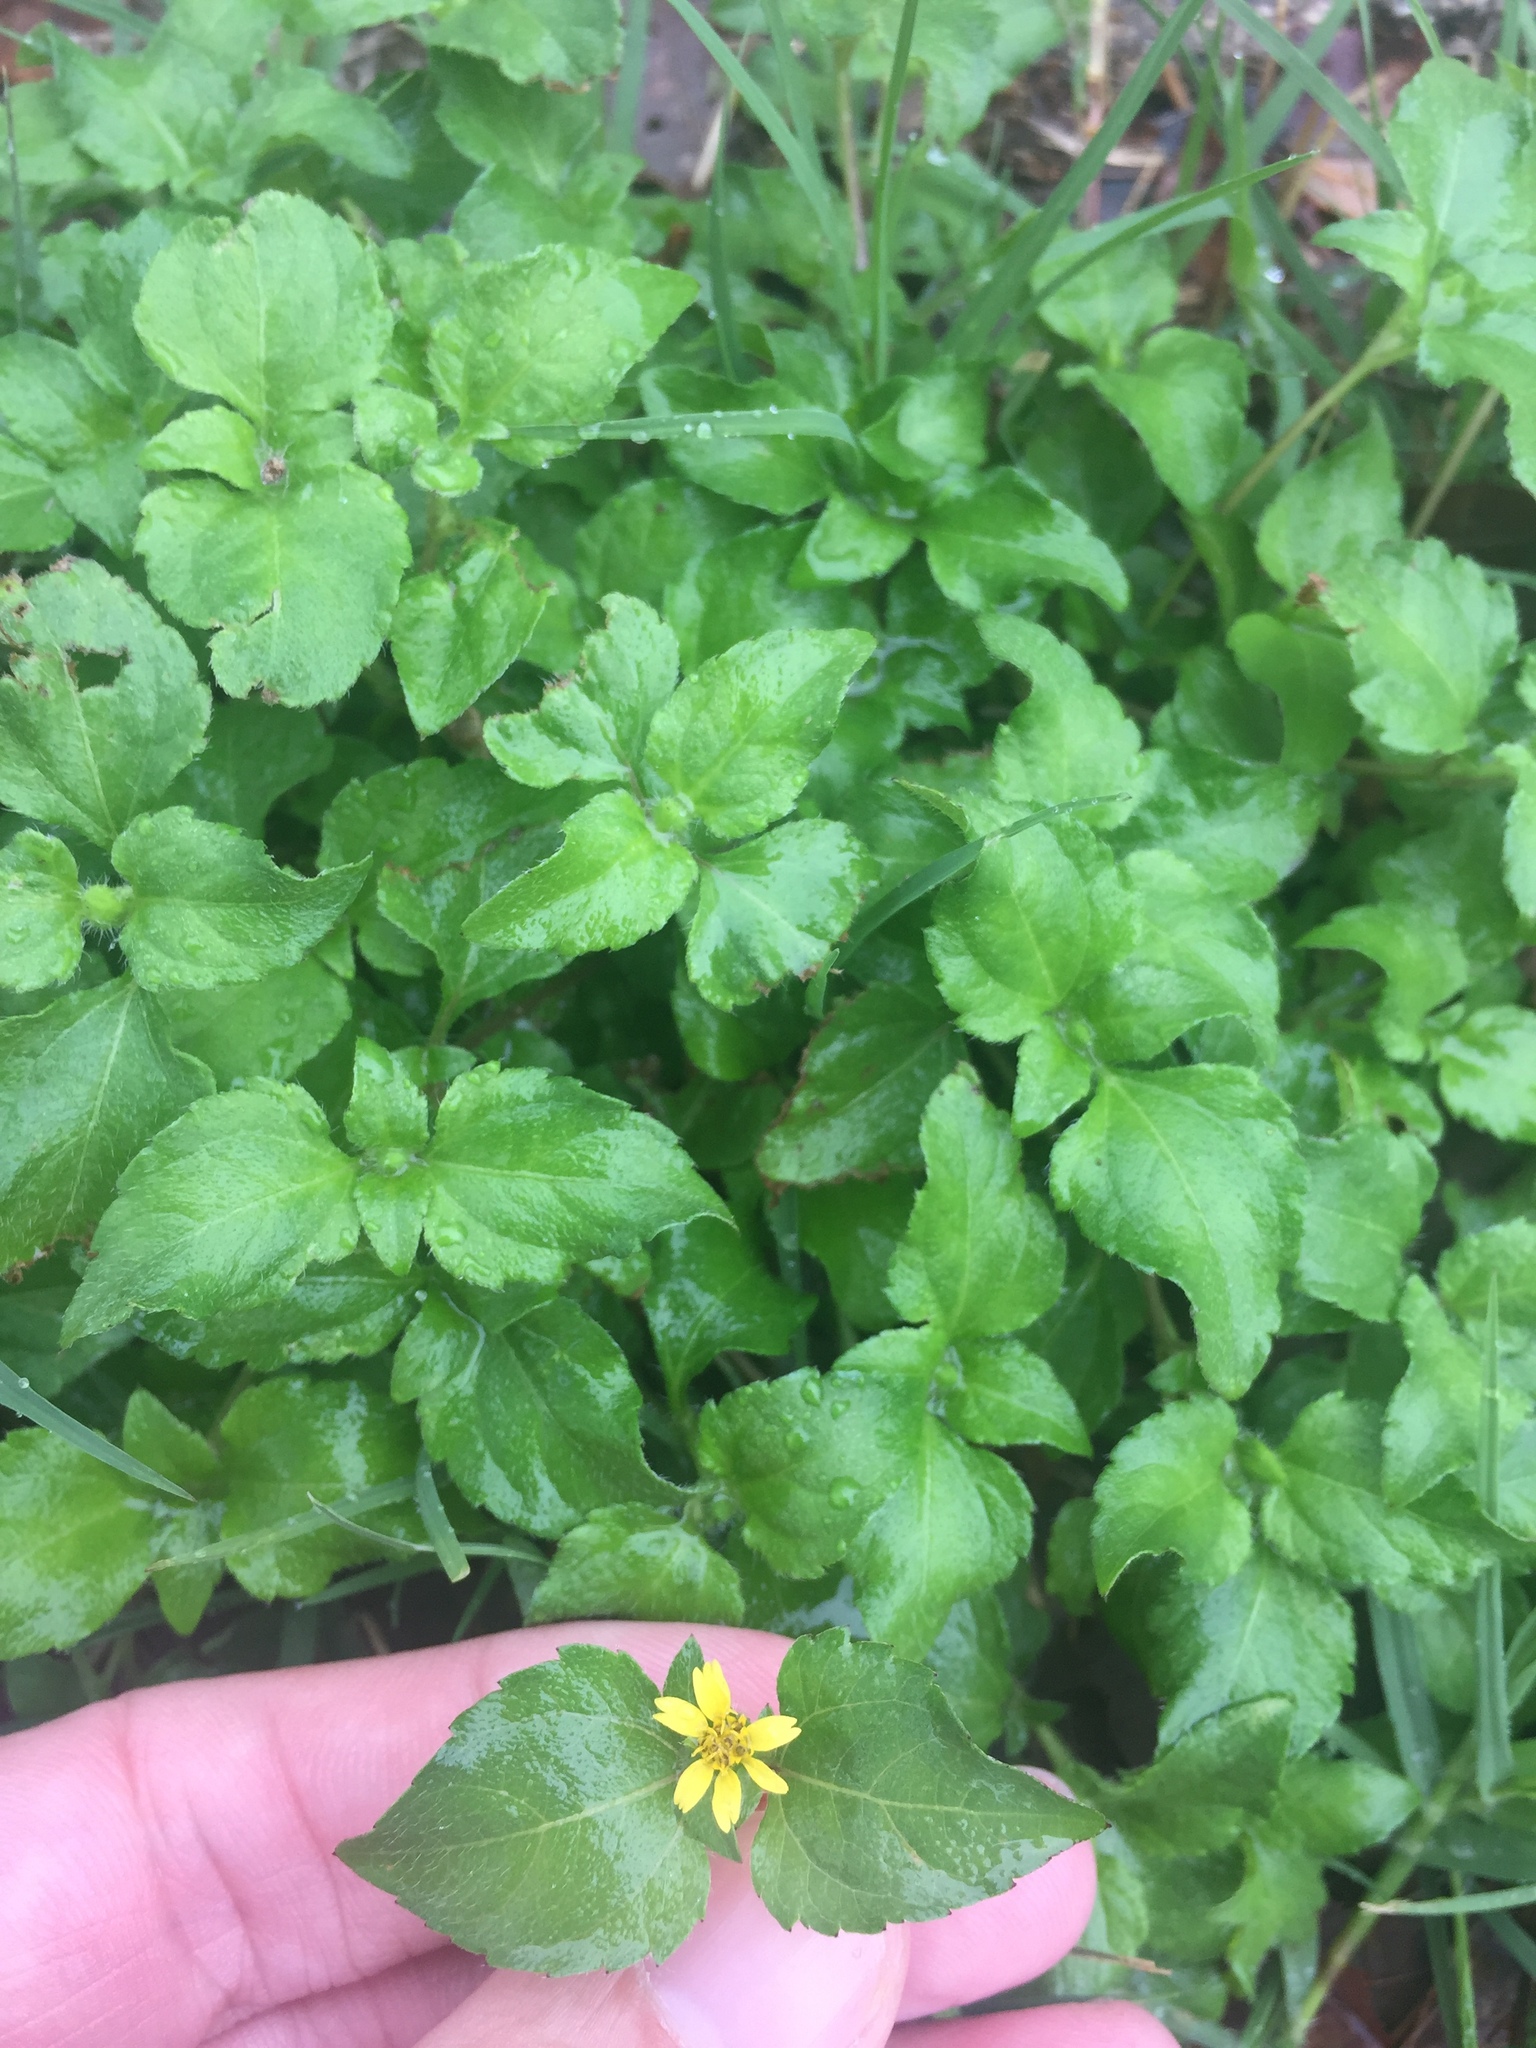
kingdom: Plantae
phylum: Tracheophyta
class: Magnoliopsida
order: Asterales
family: Asteraceae
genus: Calyptocarpus
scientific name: Calyptocarpus vialis
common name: Straggler daisy
